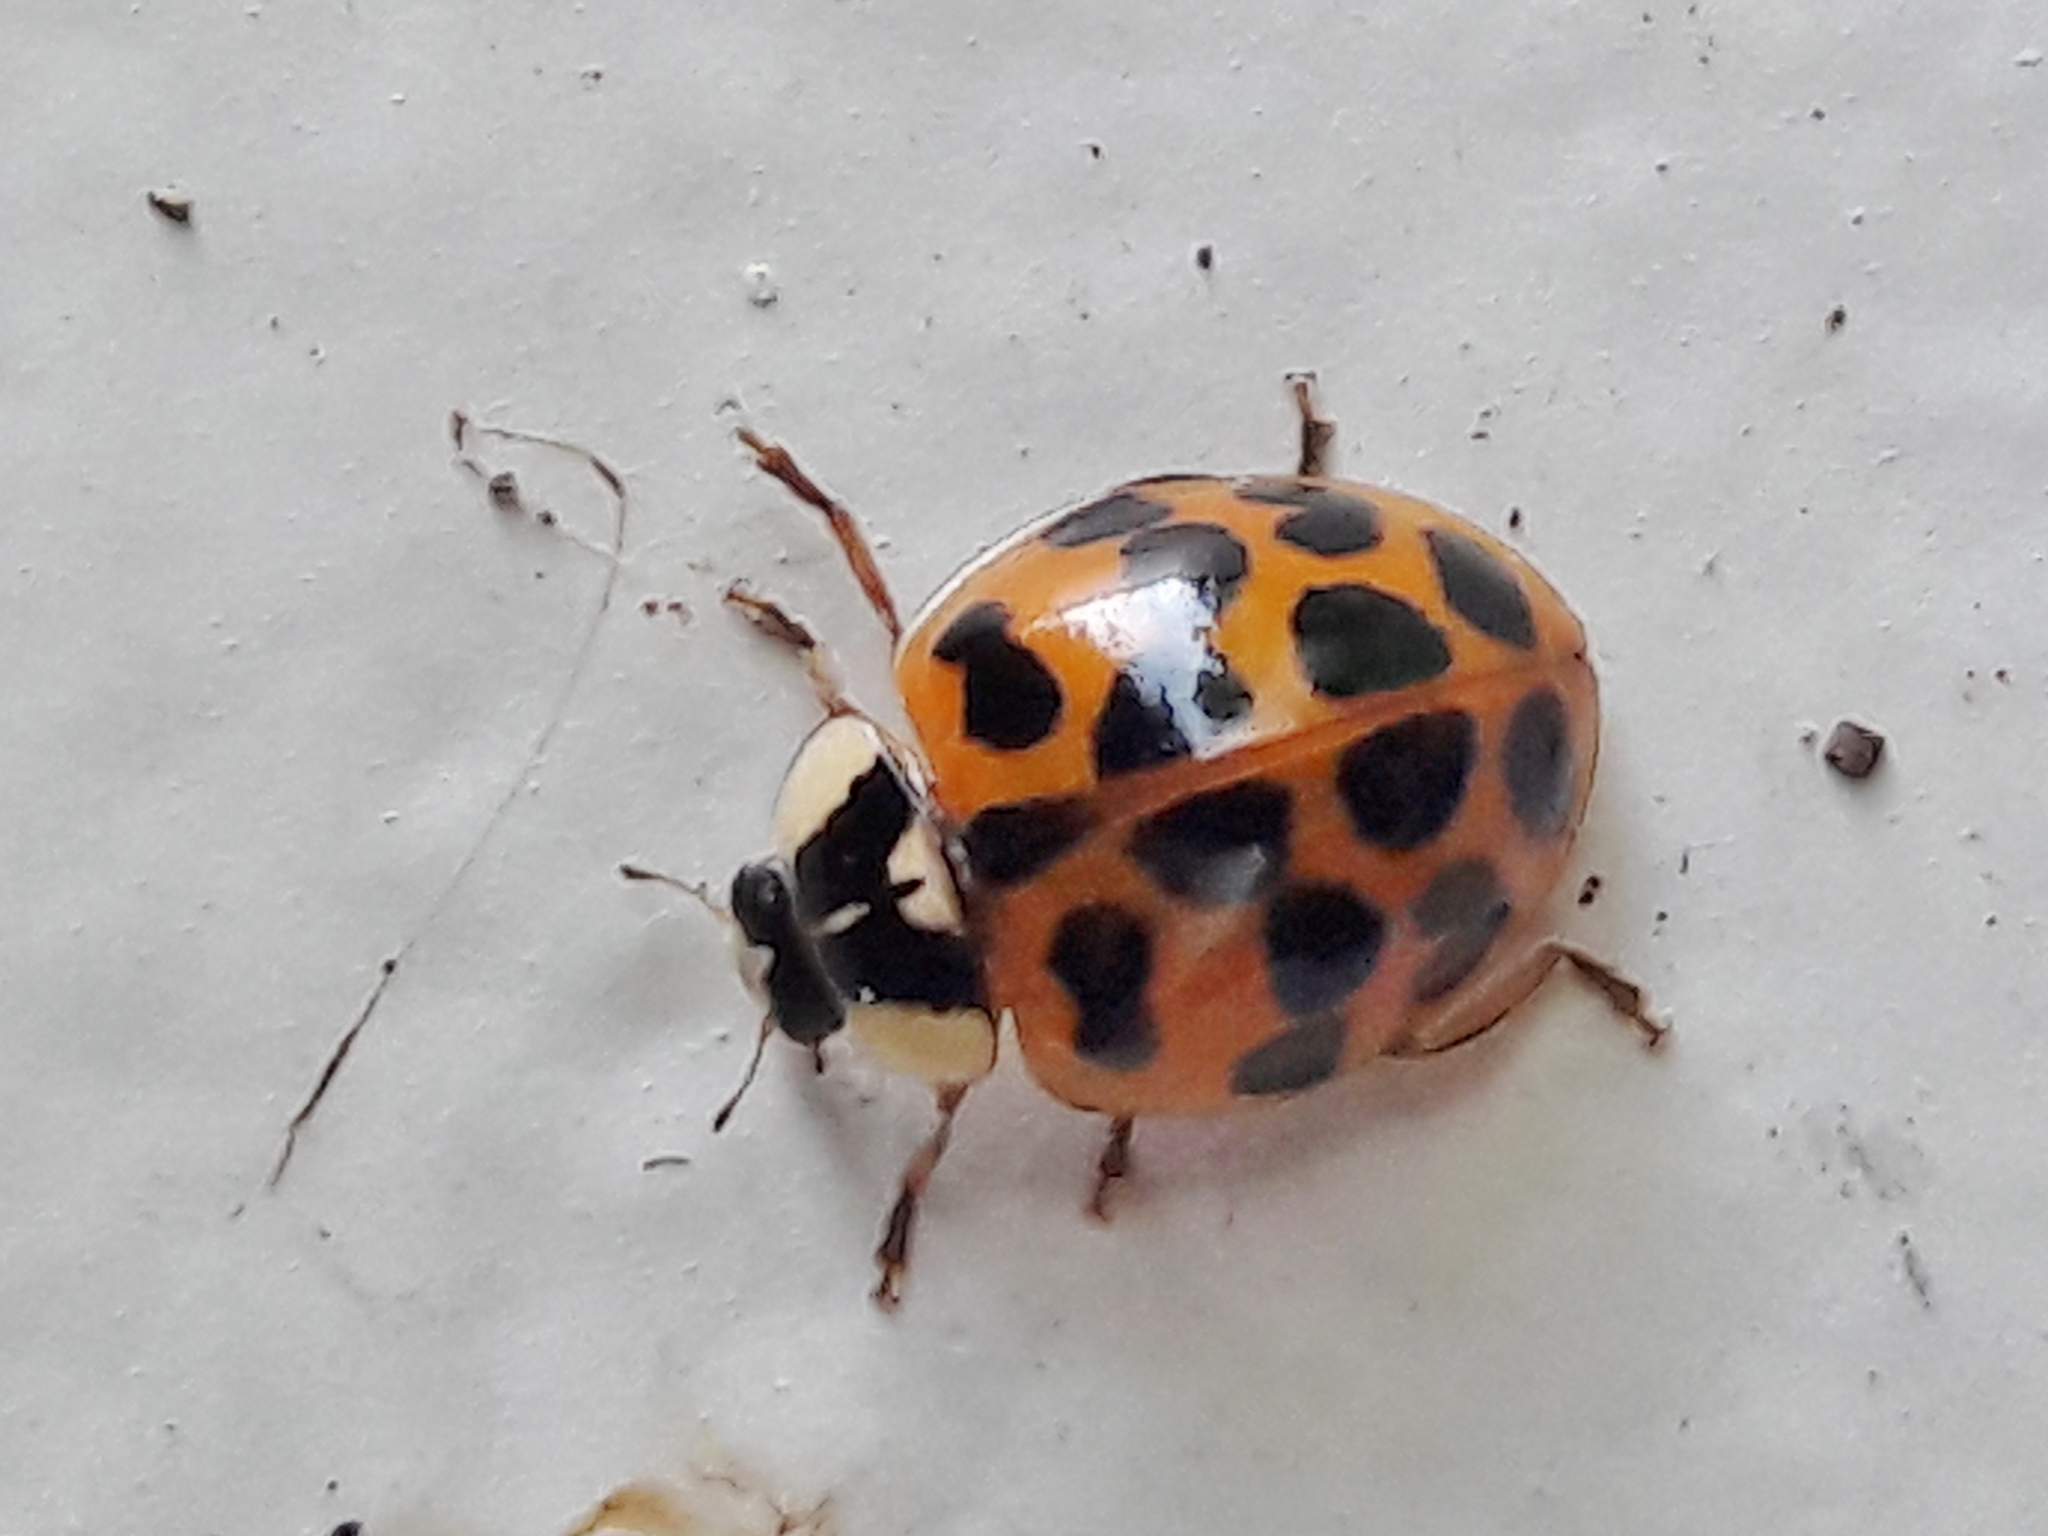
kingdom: Animalia
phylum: Arthropoda
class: Insecta
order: Coleoptera
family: Coccinellidae
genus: Harmonia
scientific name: Harmonia axyridis
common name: Harlequin ladybird
